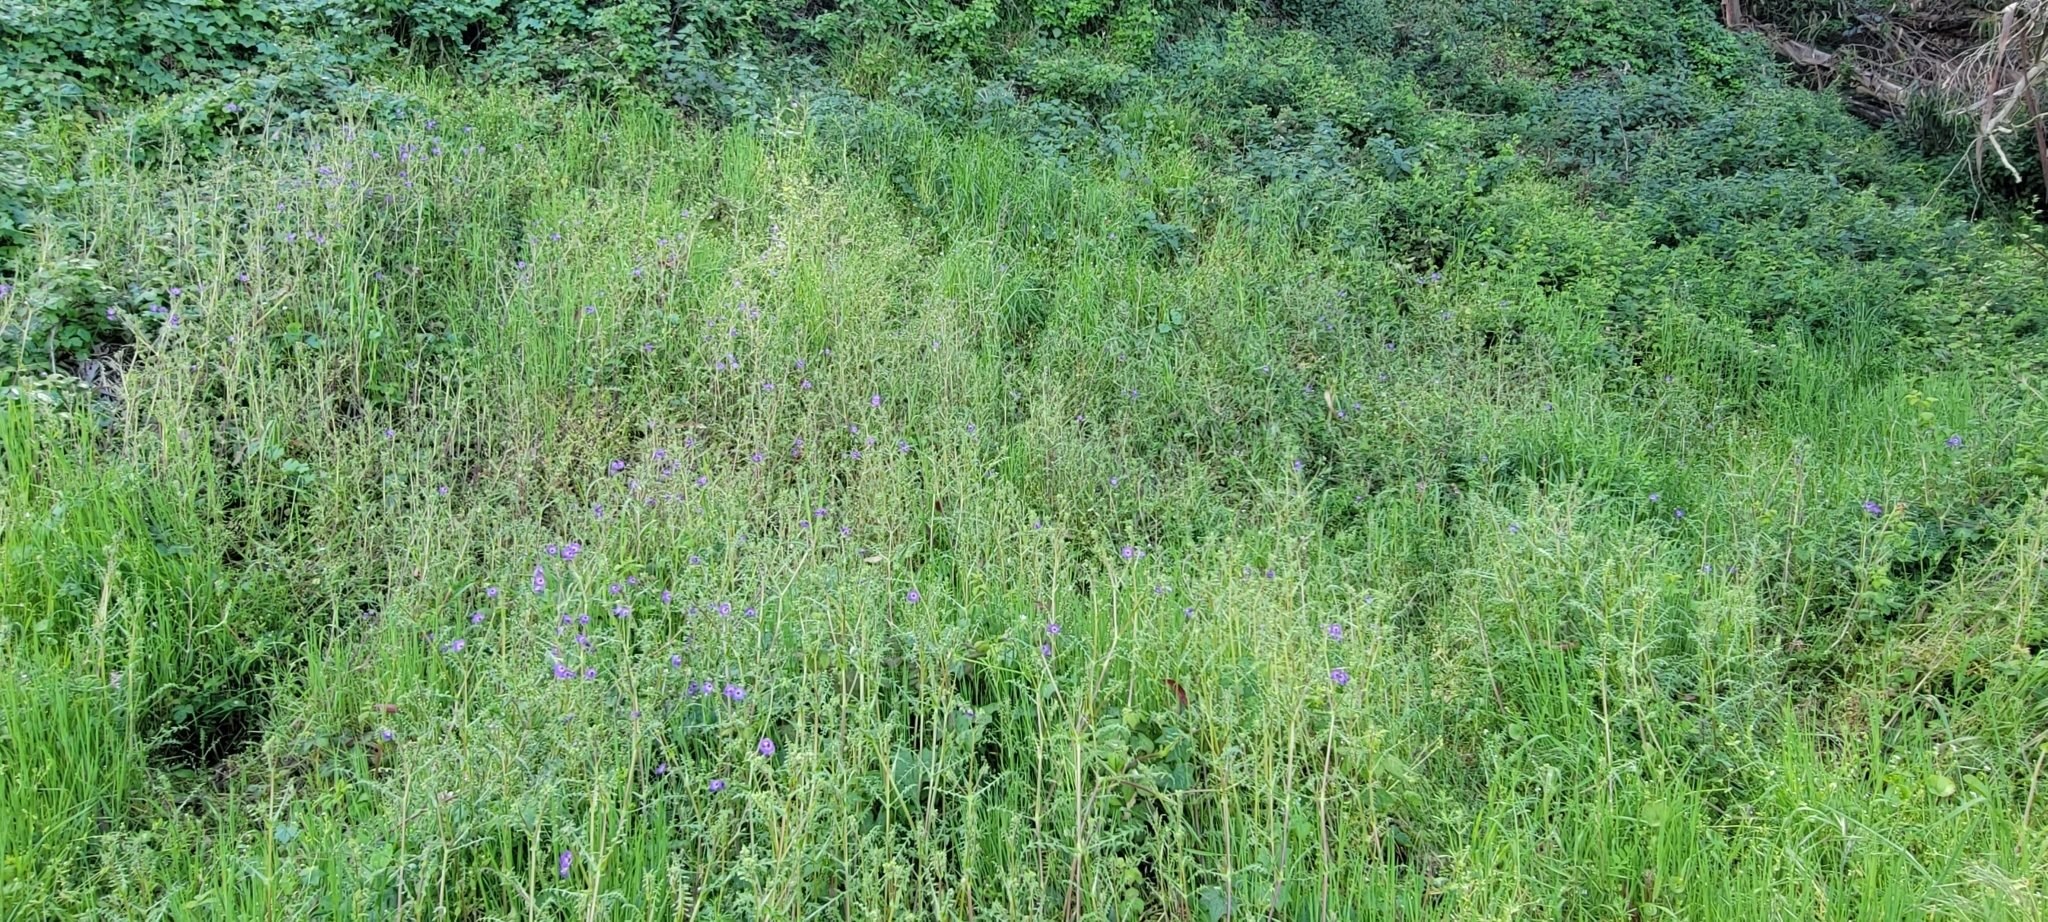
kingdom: Plantae
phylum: Tracheophyta
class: Magnoliopsida
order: Boraginales
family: Hydrophyllaceae
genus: Pholistoma
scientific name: Pholistoma auritum
